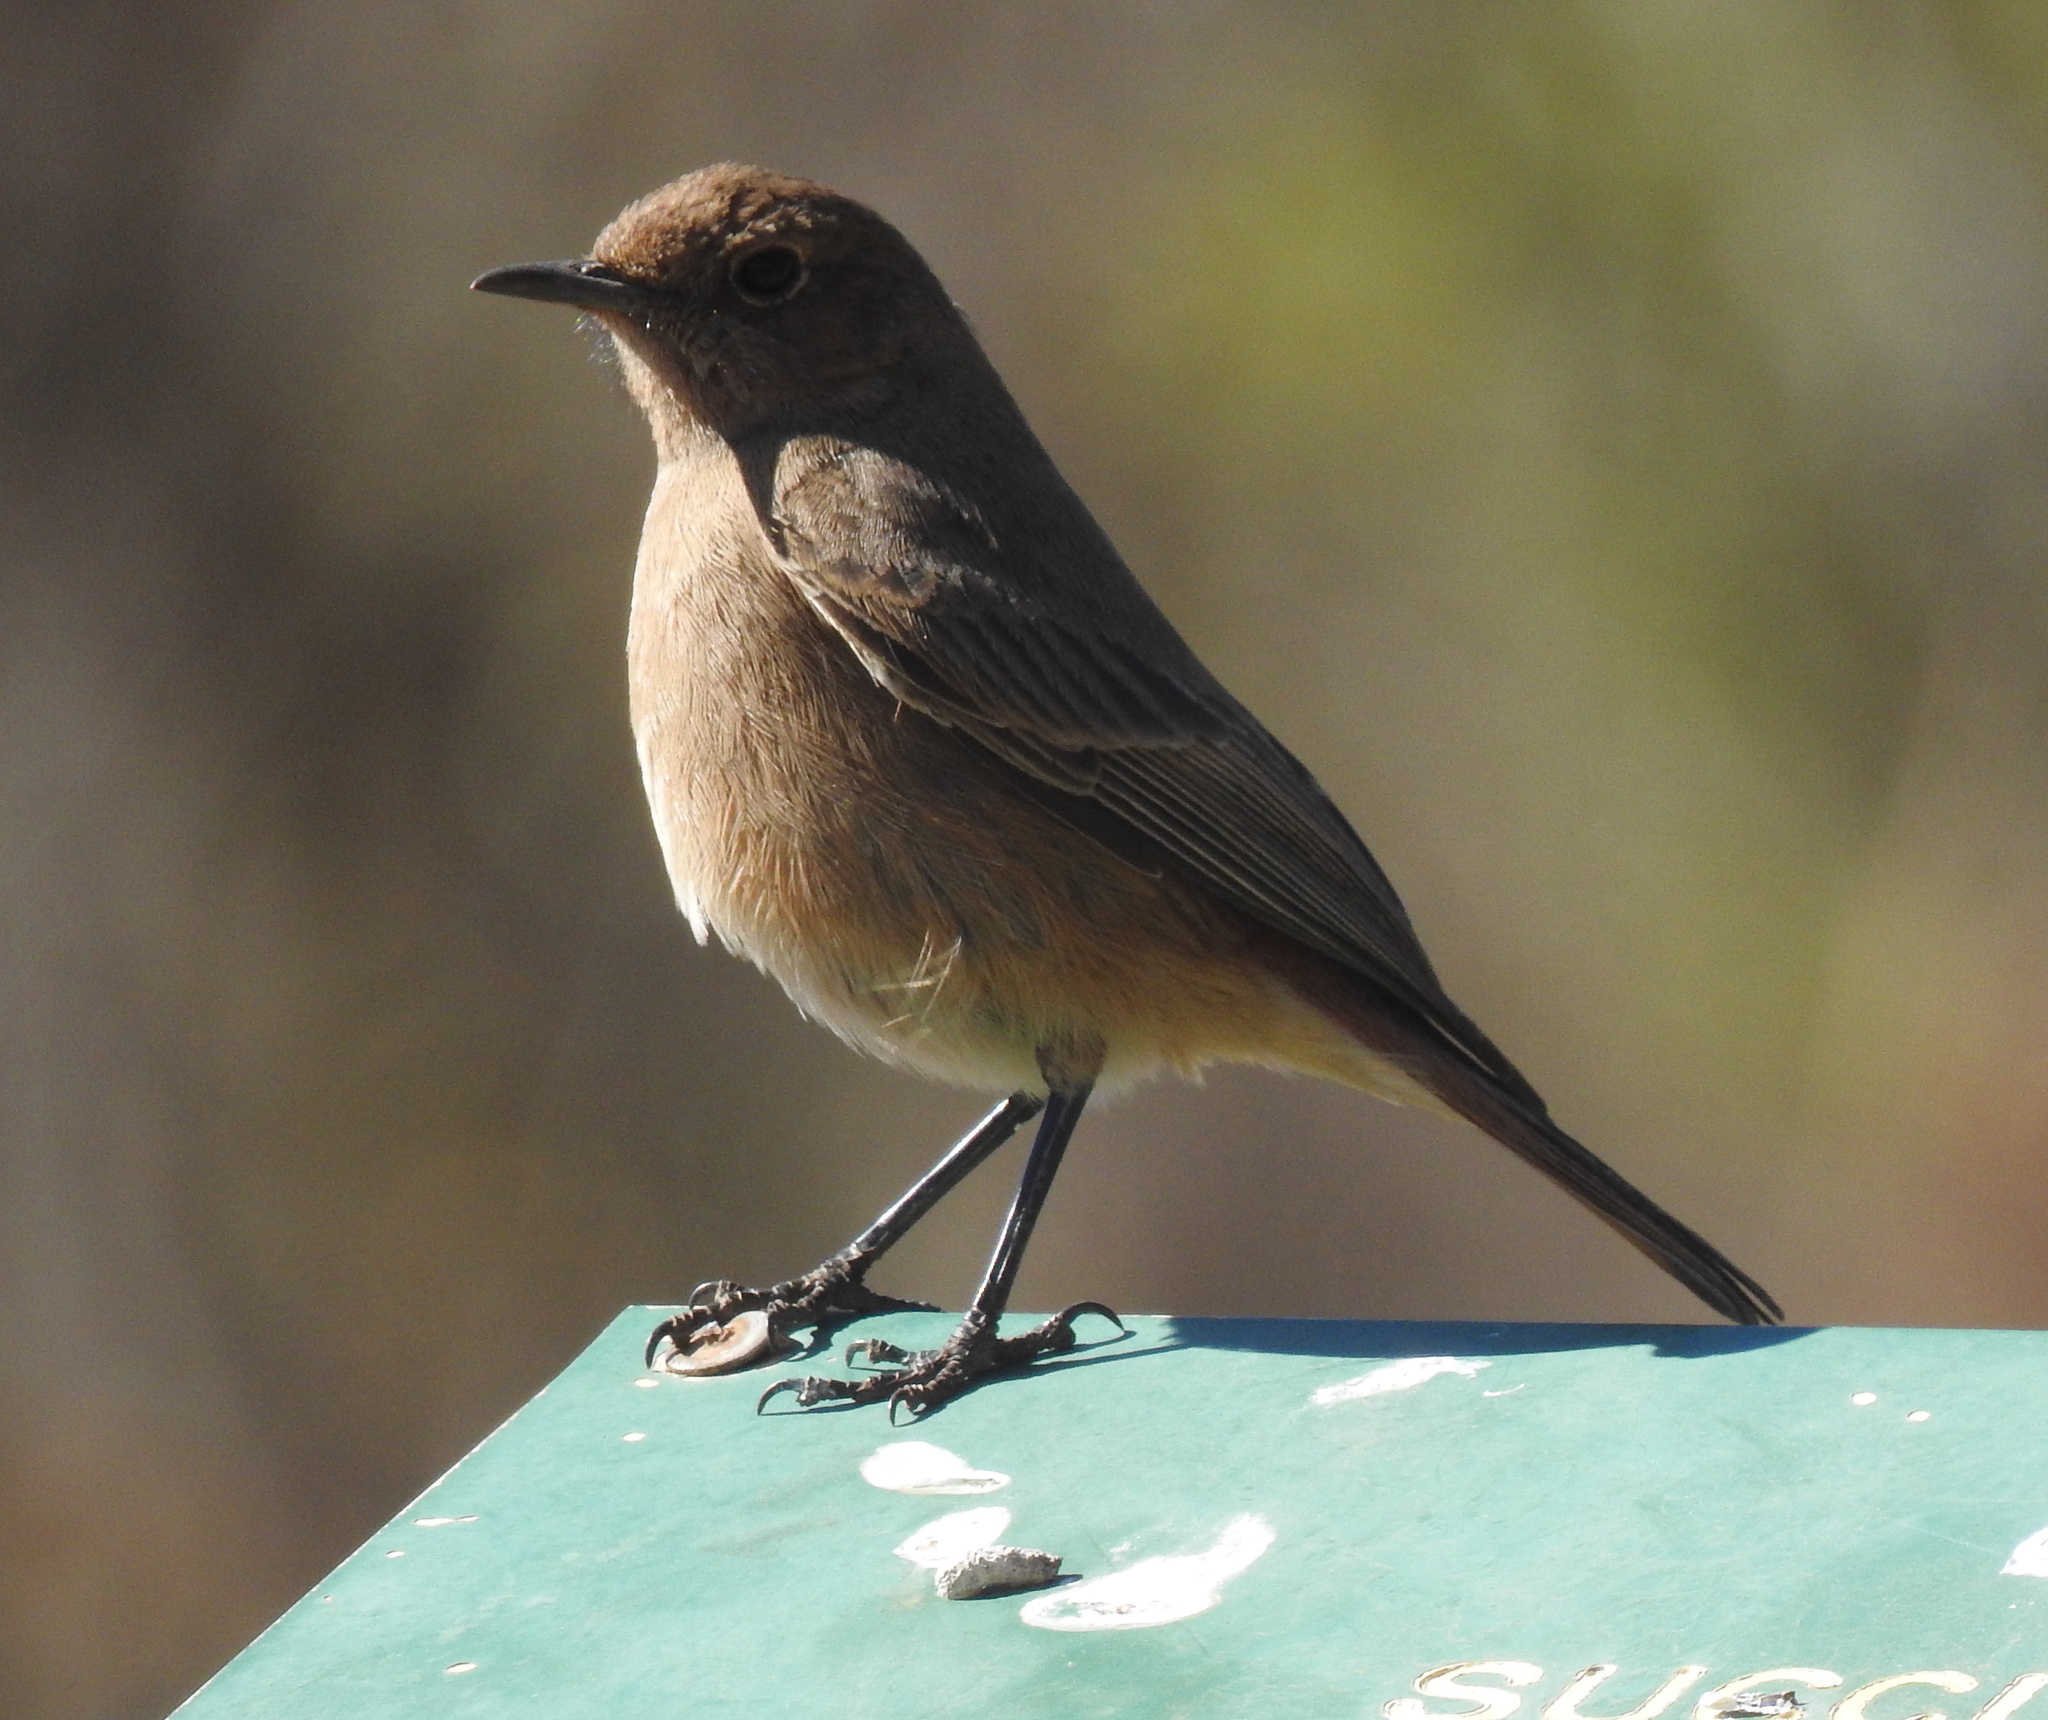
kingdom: Animalia
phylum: Chordata
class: Aves
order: Passeriformes
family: Muscicapidae
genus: Oenanthe
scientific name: Oenanthe familiaris
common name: Familiar chat
